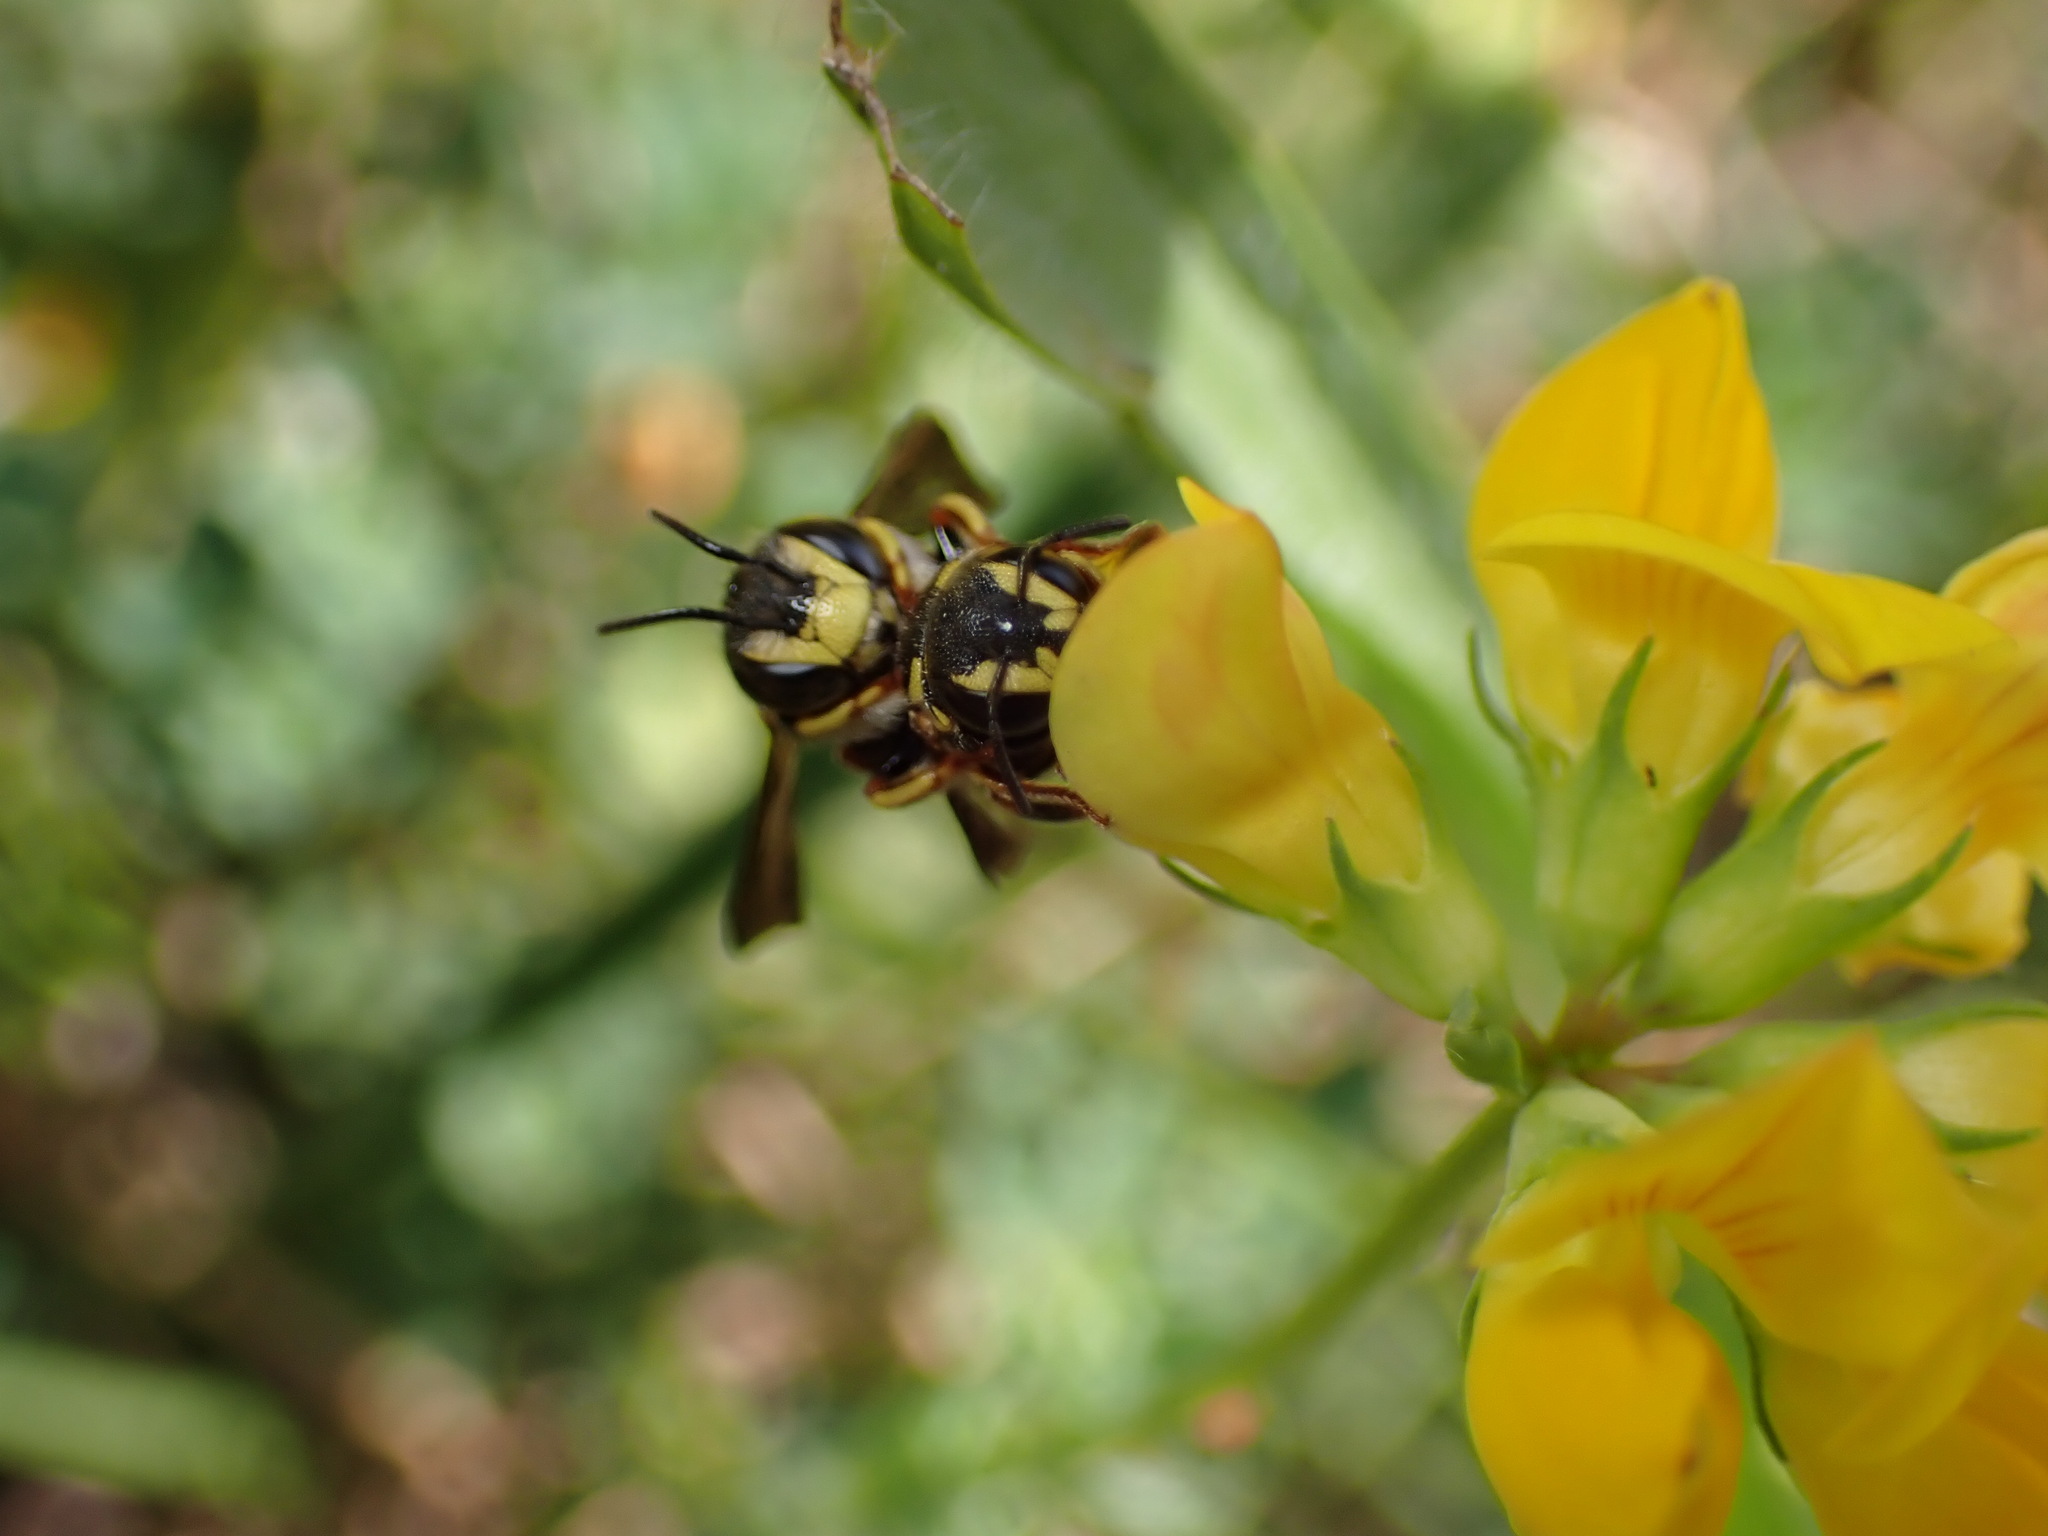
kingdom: Animalia
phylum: Arthropoda
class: Insecta
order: Hymenoptera
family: Megachilidae
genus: Anthidiellum
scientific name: Anthidiellum notatum
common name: Northern rotund-resin bee
